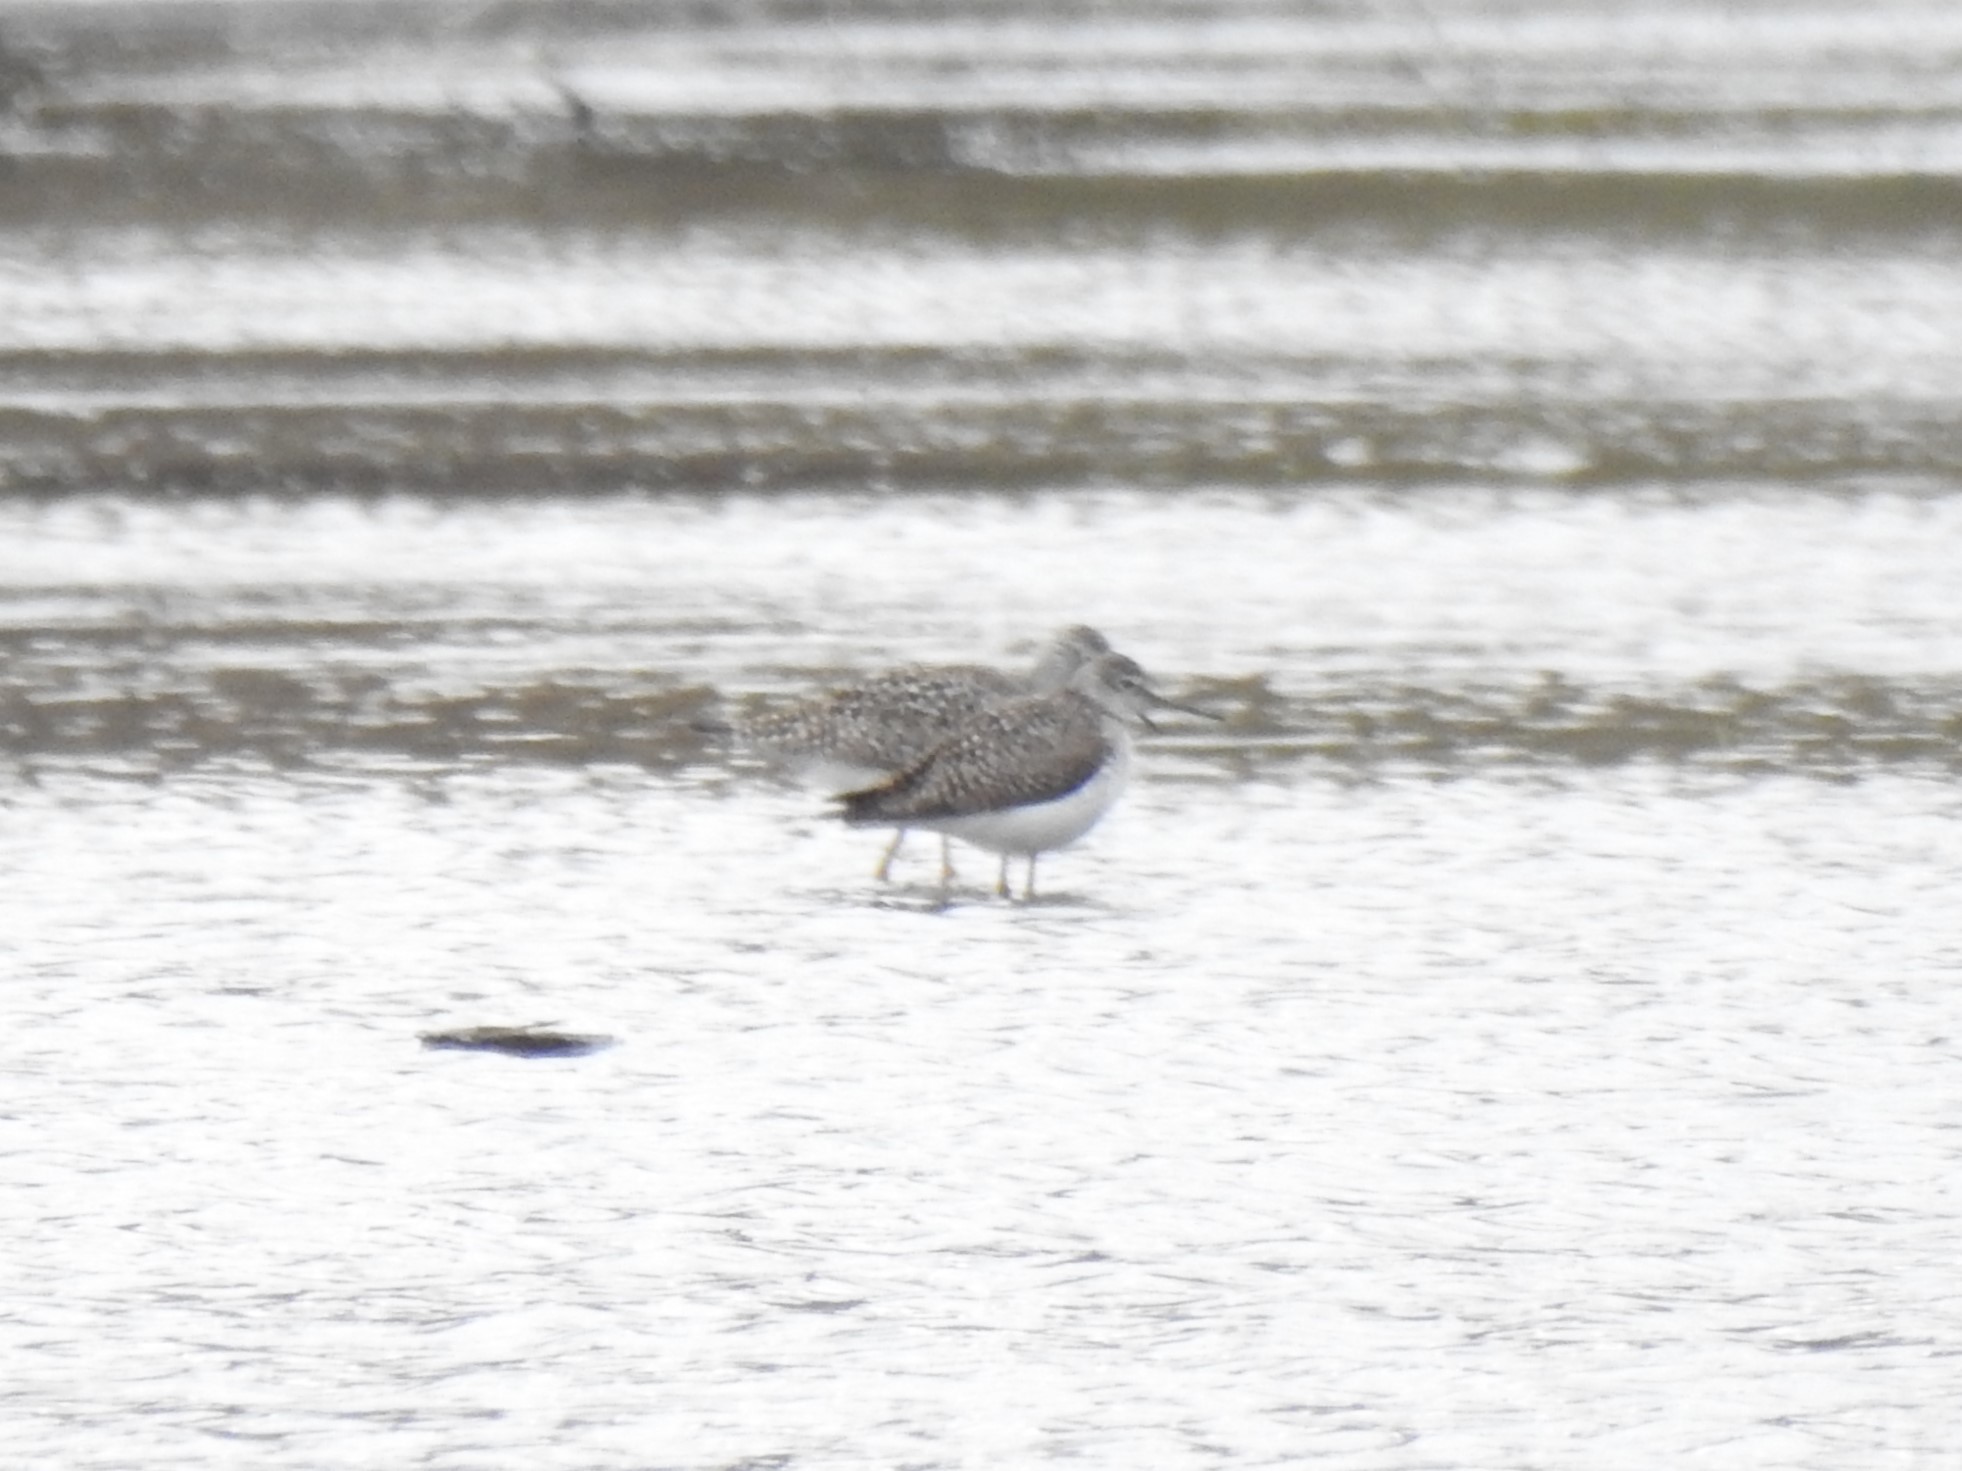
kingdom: Animalia
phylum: Chordata
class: Aves
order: Charadriiformes
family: Scolopacidae
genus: Tringa
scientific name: Tringa solitaria
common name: Solitary sandpiper
